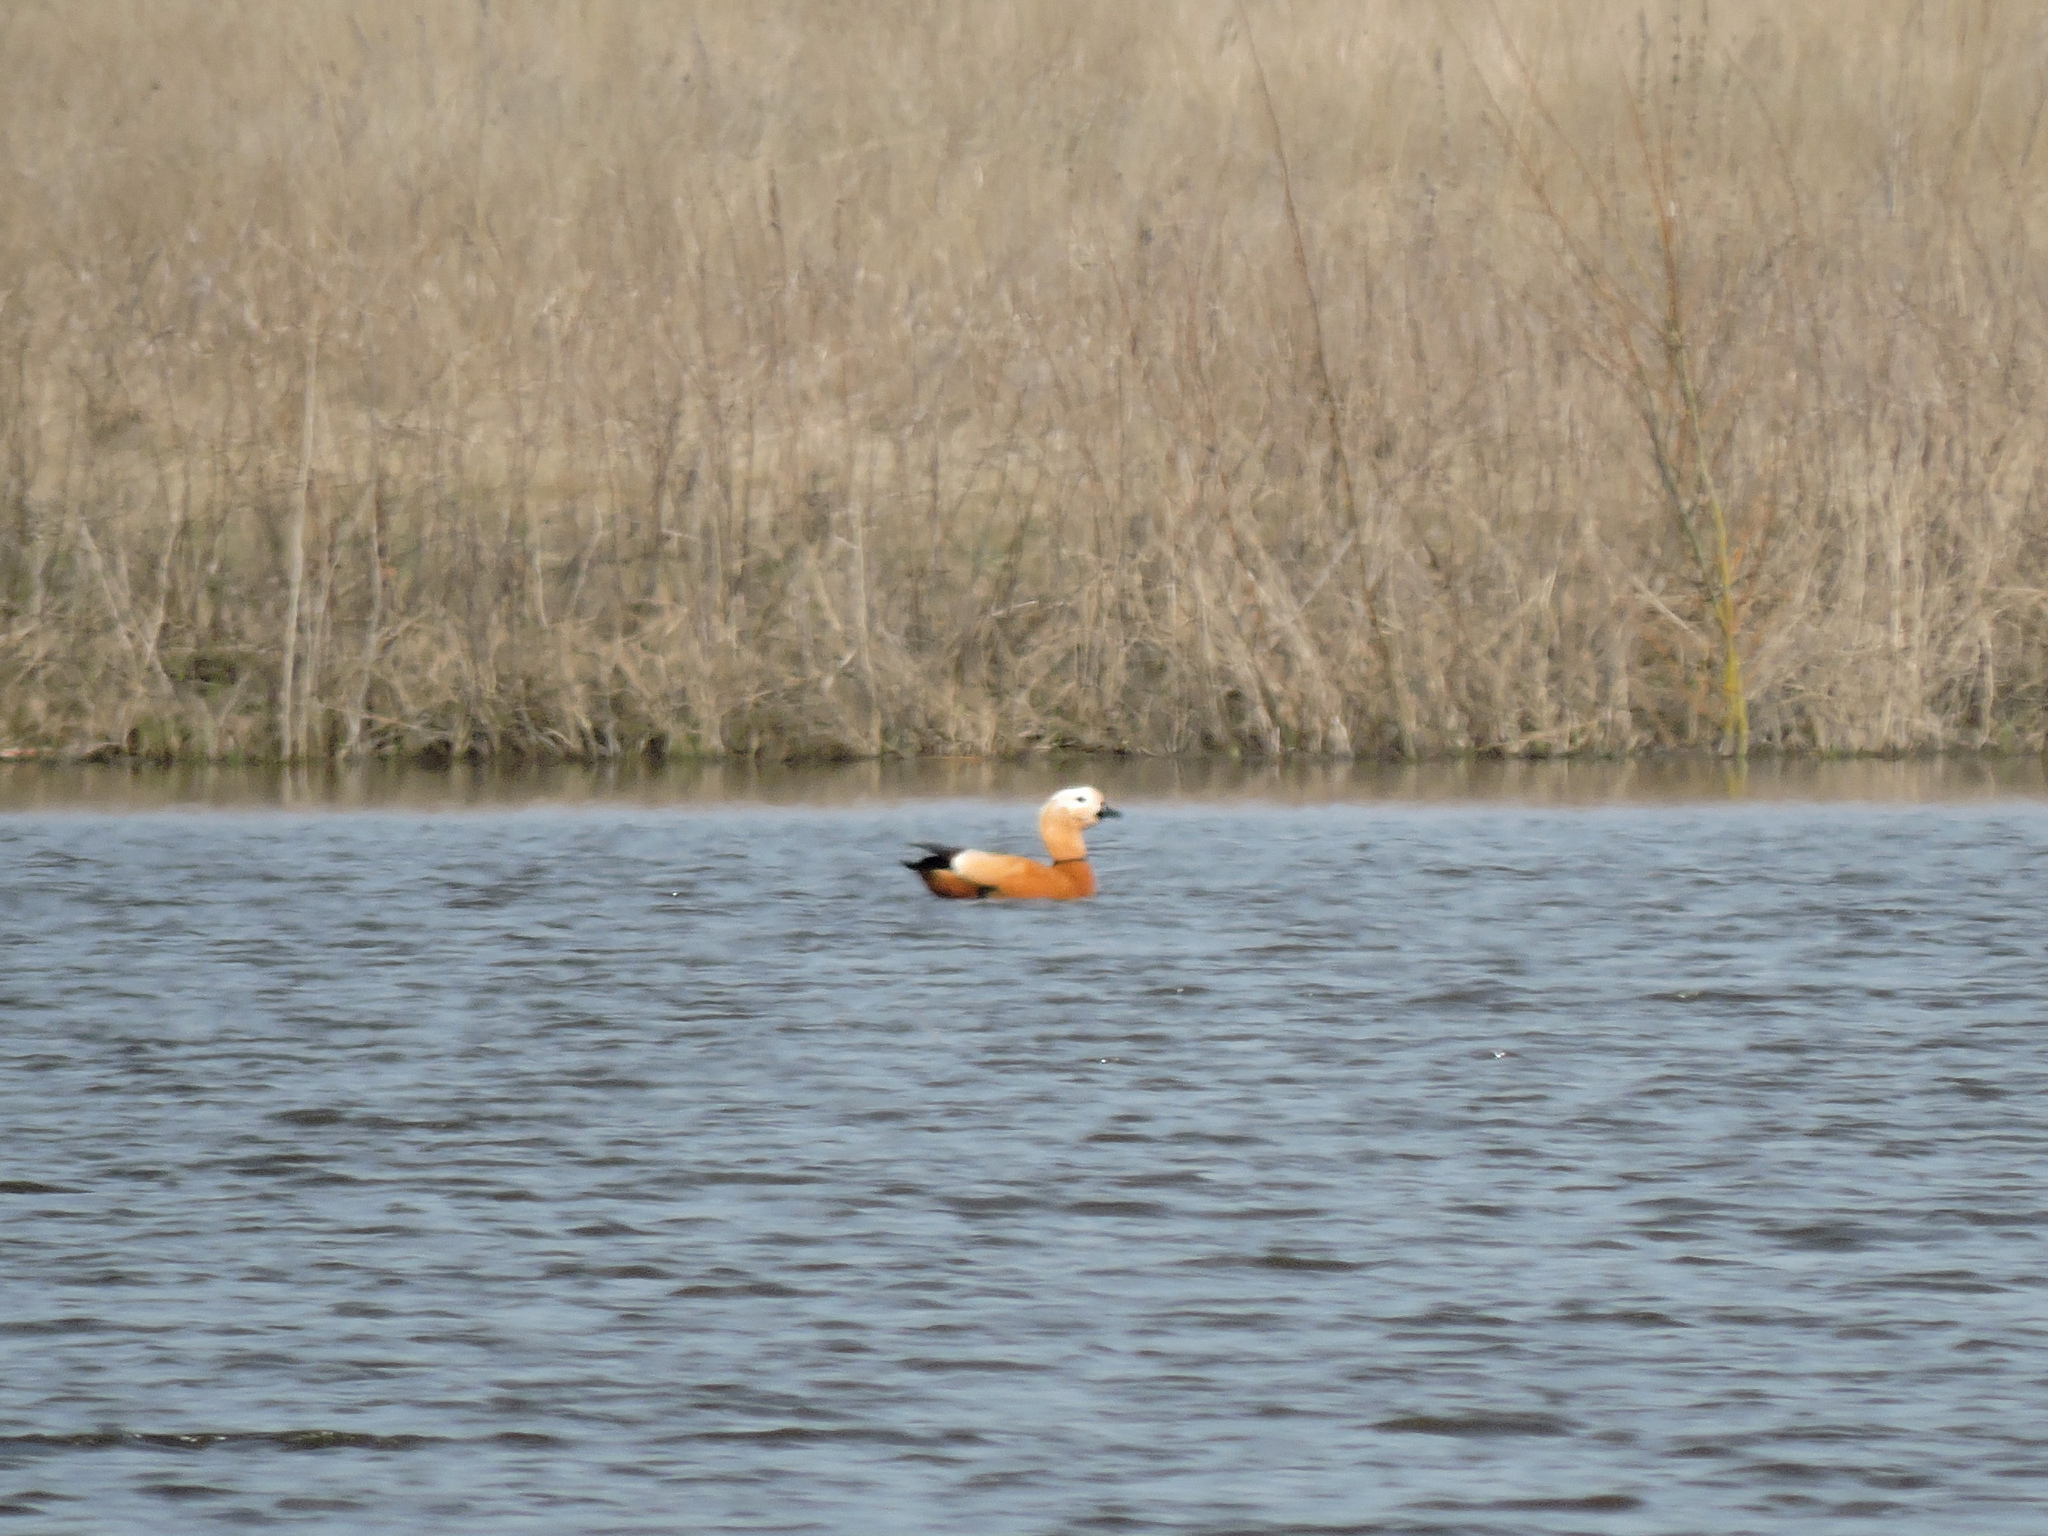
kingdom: Animalia
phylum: Chordata
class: Aves
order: Anseriformes
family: Anatidae
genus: Tadorna
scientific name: Tadorna ferruginea
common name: Ruddy shelduck
